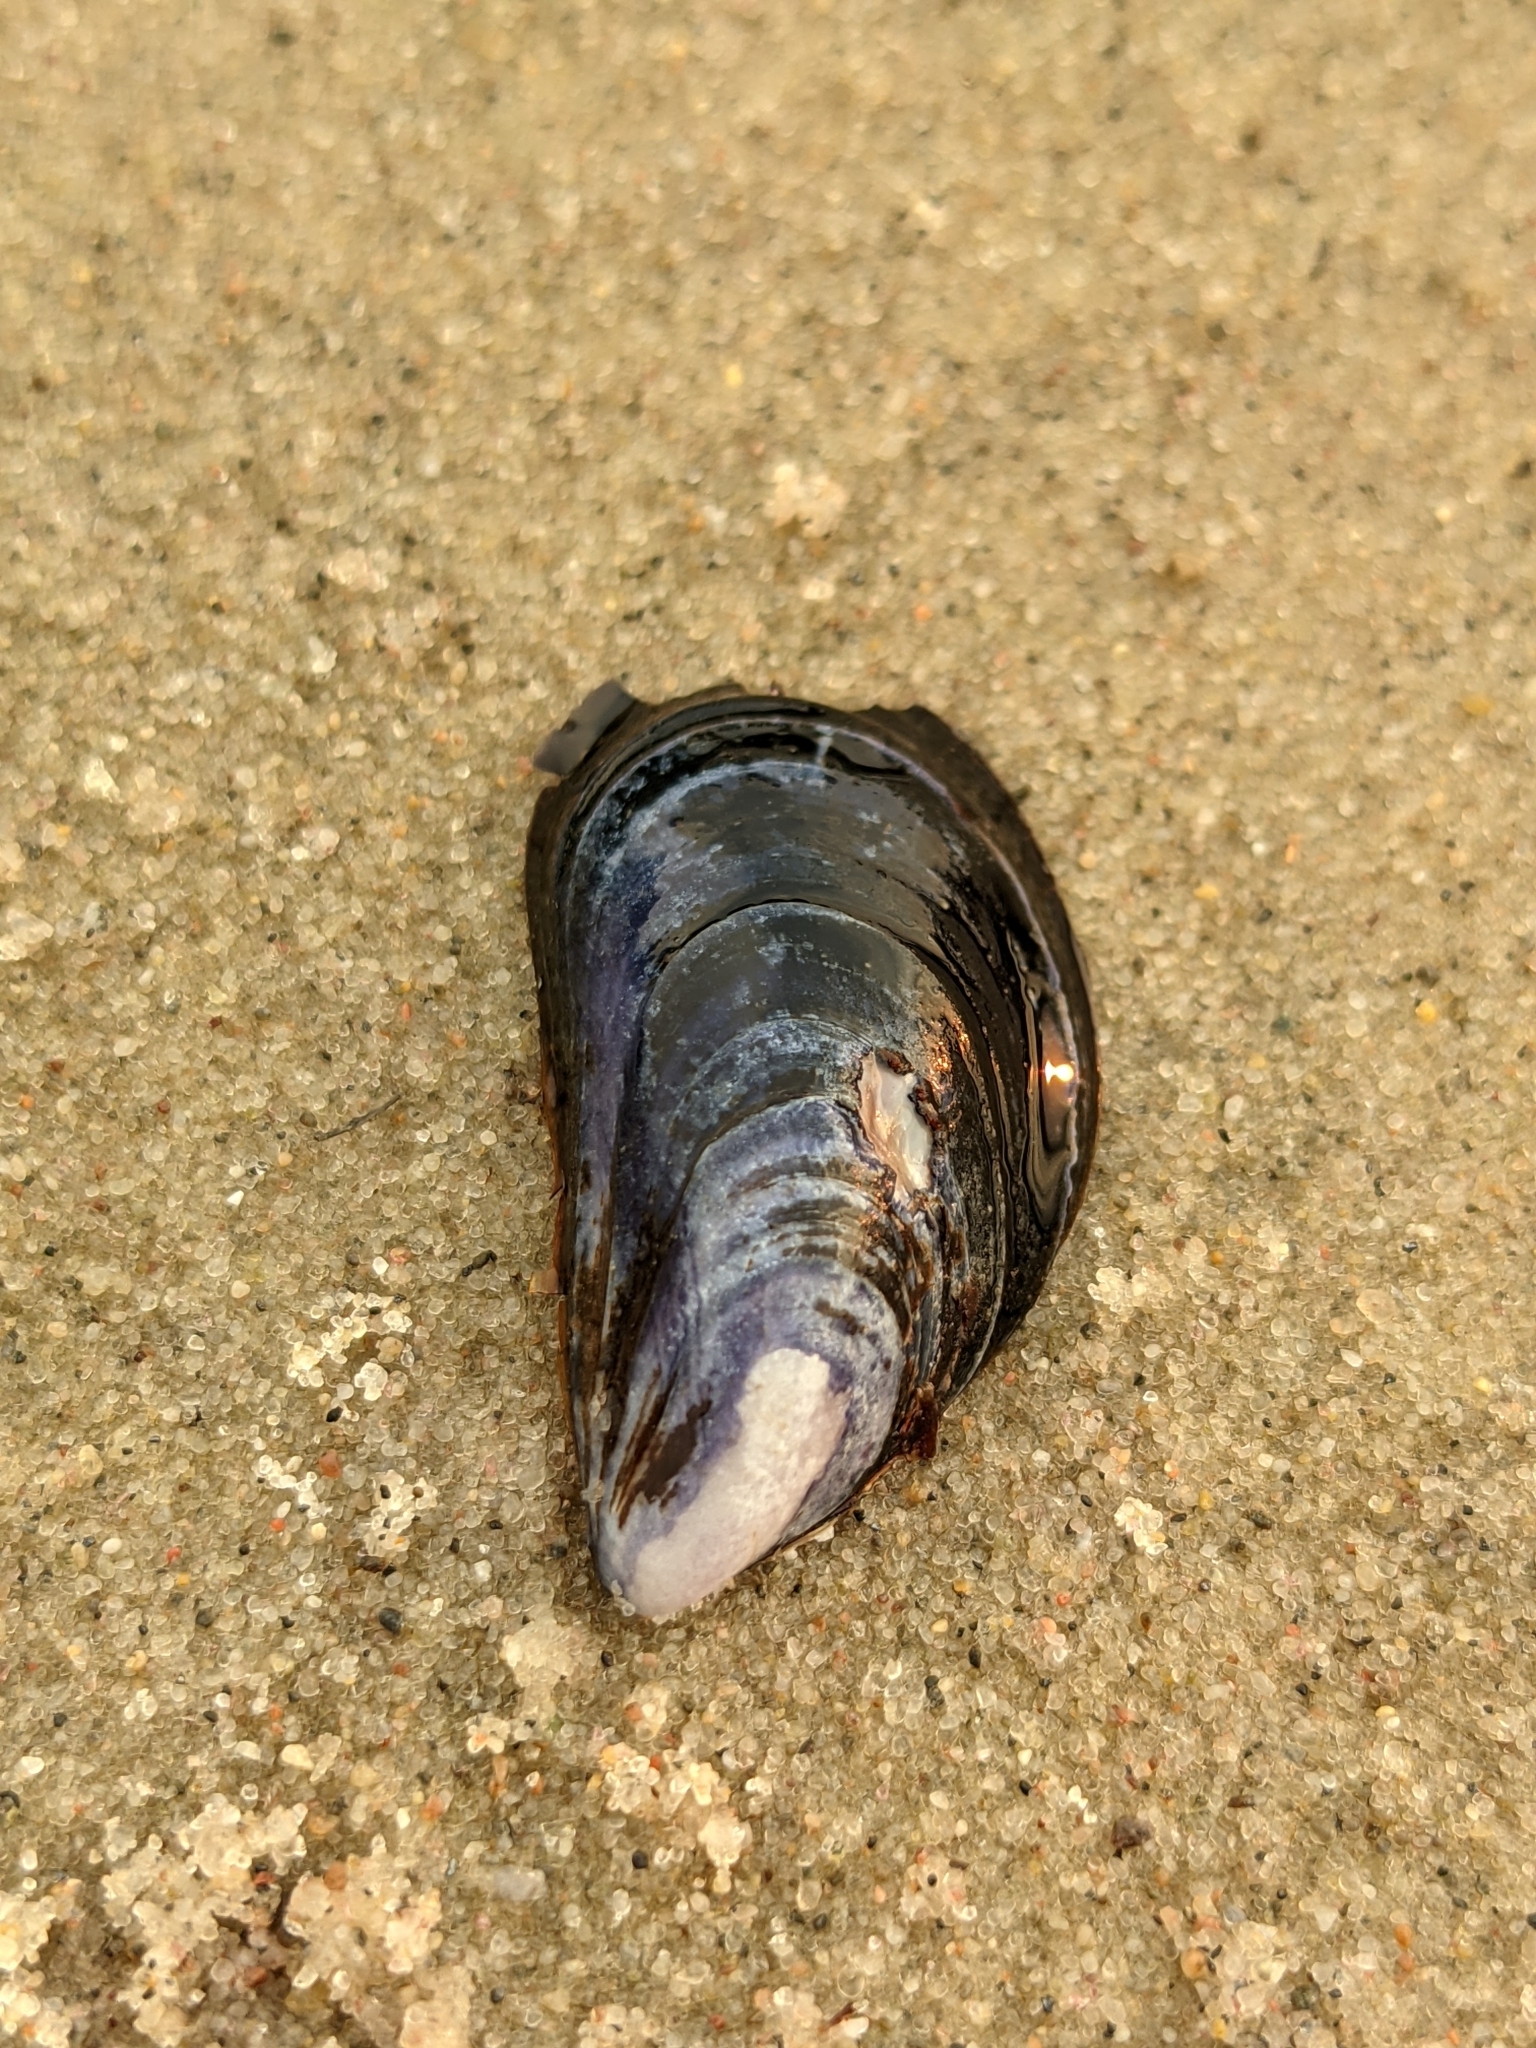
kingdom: Animalia
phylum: Mollusca
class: Bivalvia
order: Mytilida
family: Mytilidae
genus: Mytilus
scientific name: Mytilus edulis
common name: Blue mussel
